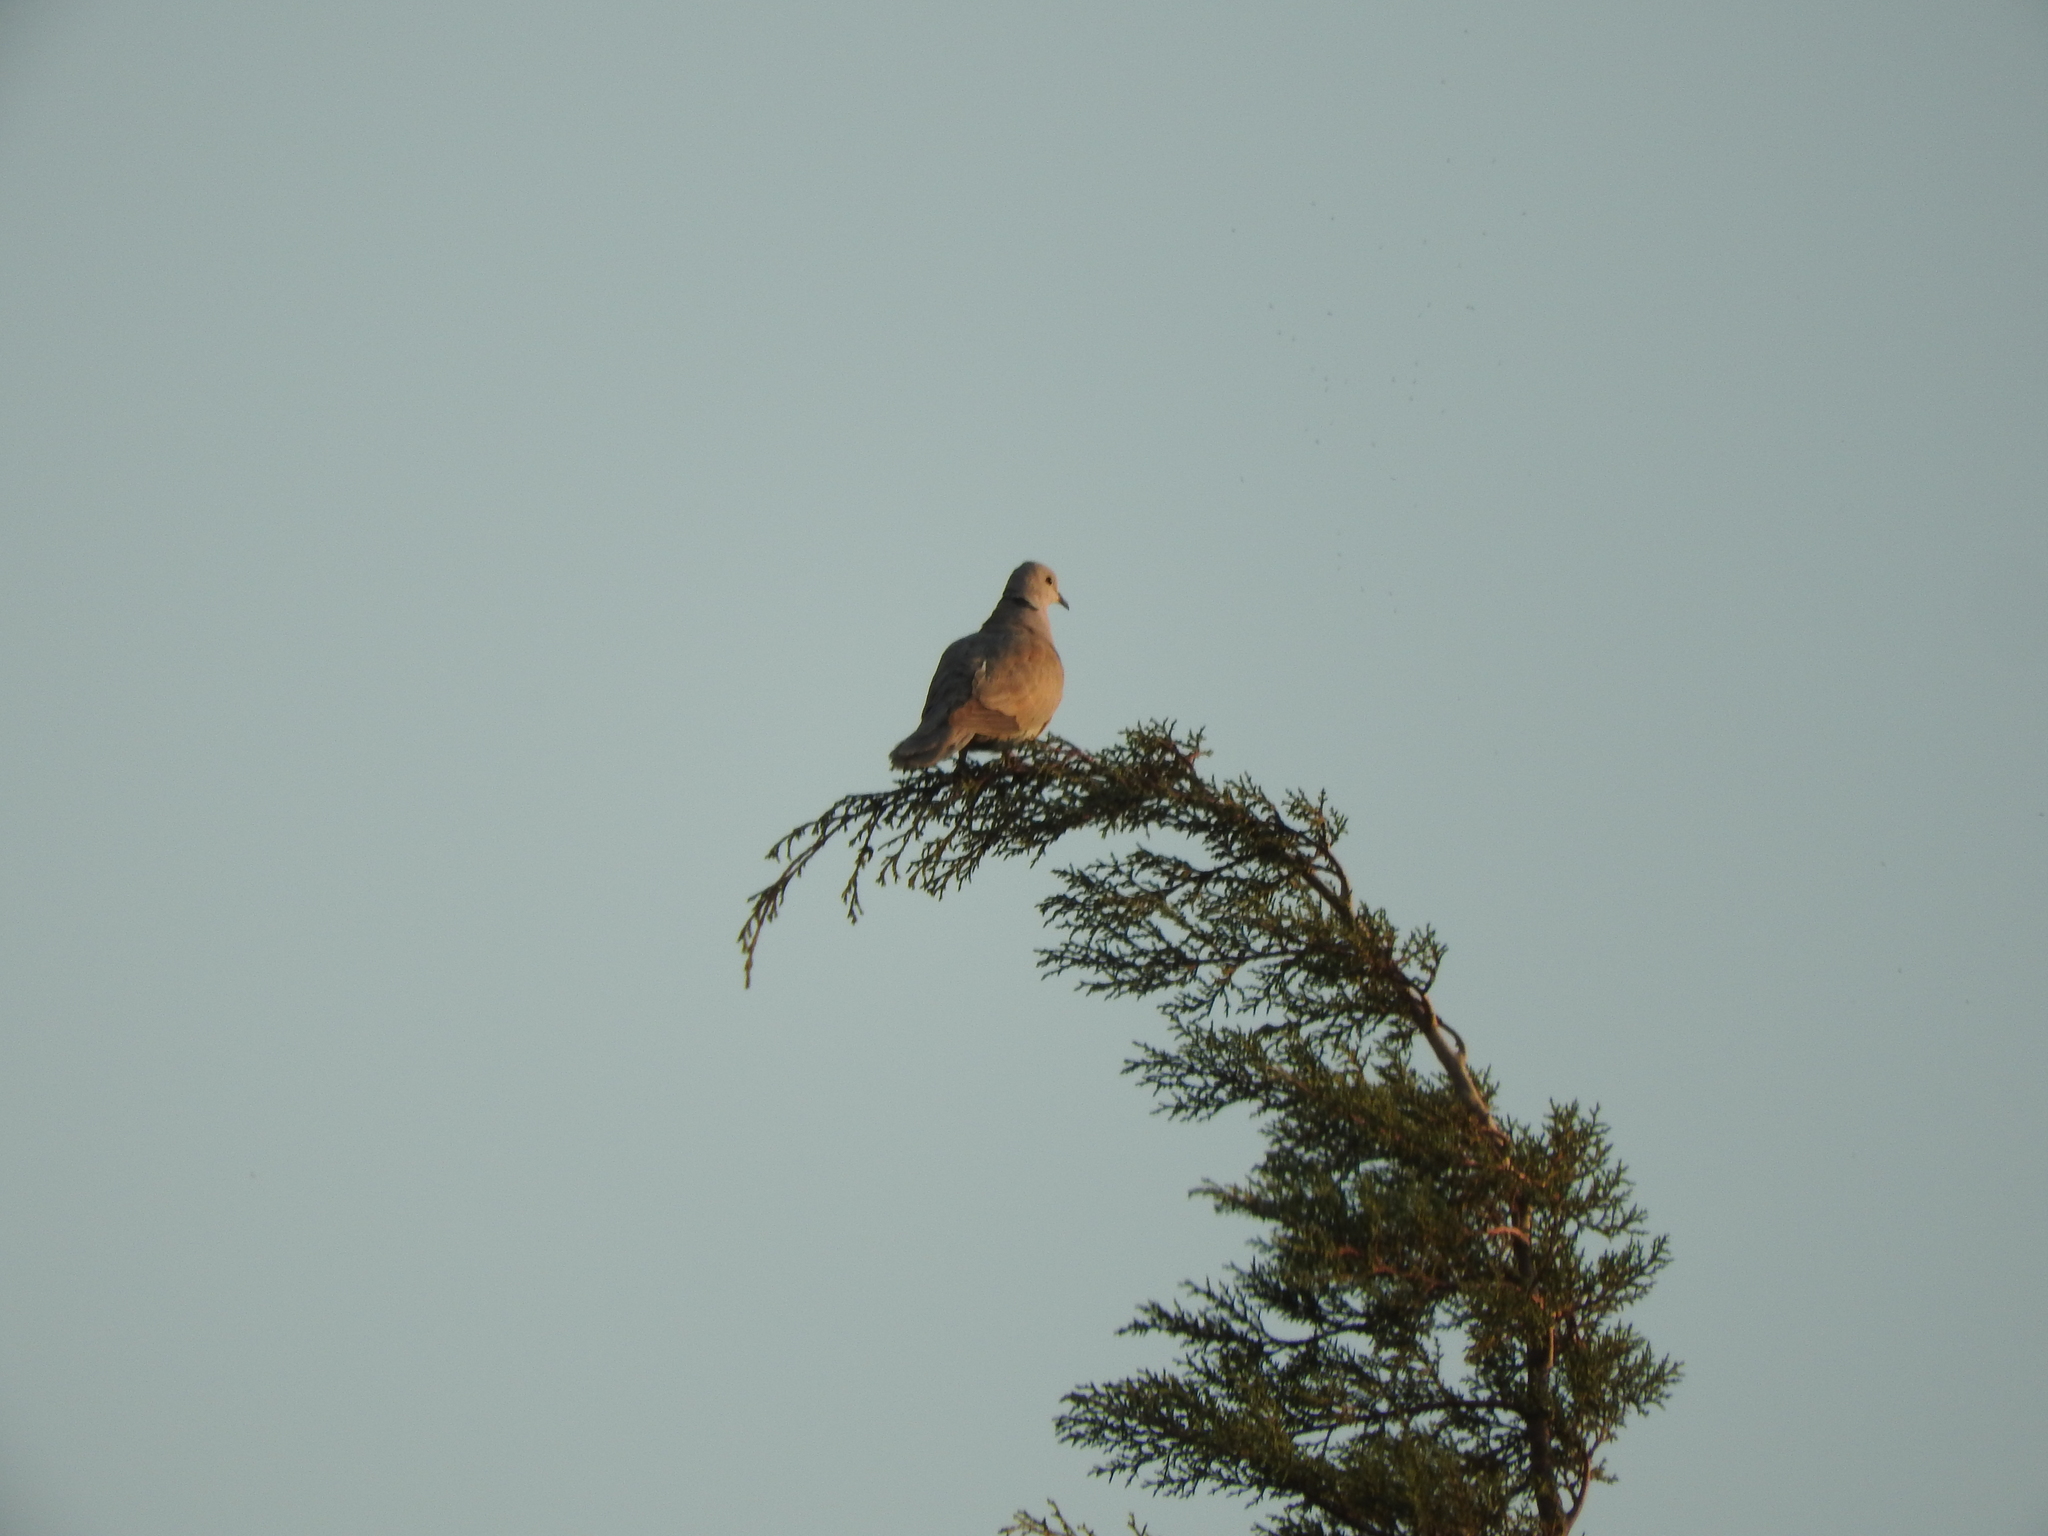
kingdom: Animalia
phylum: Chordata
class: Aves
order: Columbiformes
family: Columbidae
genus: Streptopelia
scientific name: Streptopelia decaocto
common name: Eurasian collared dove
